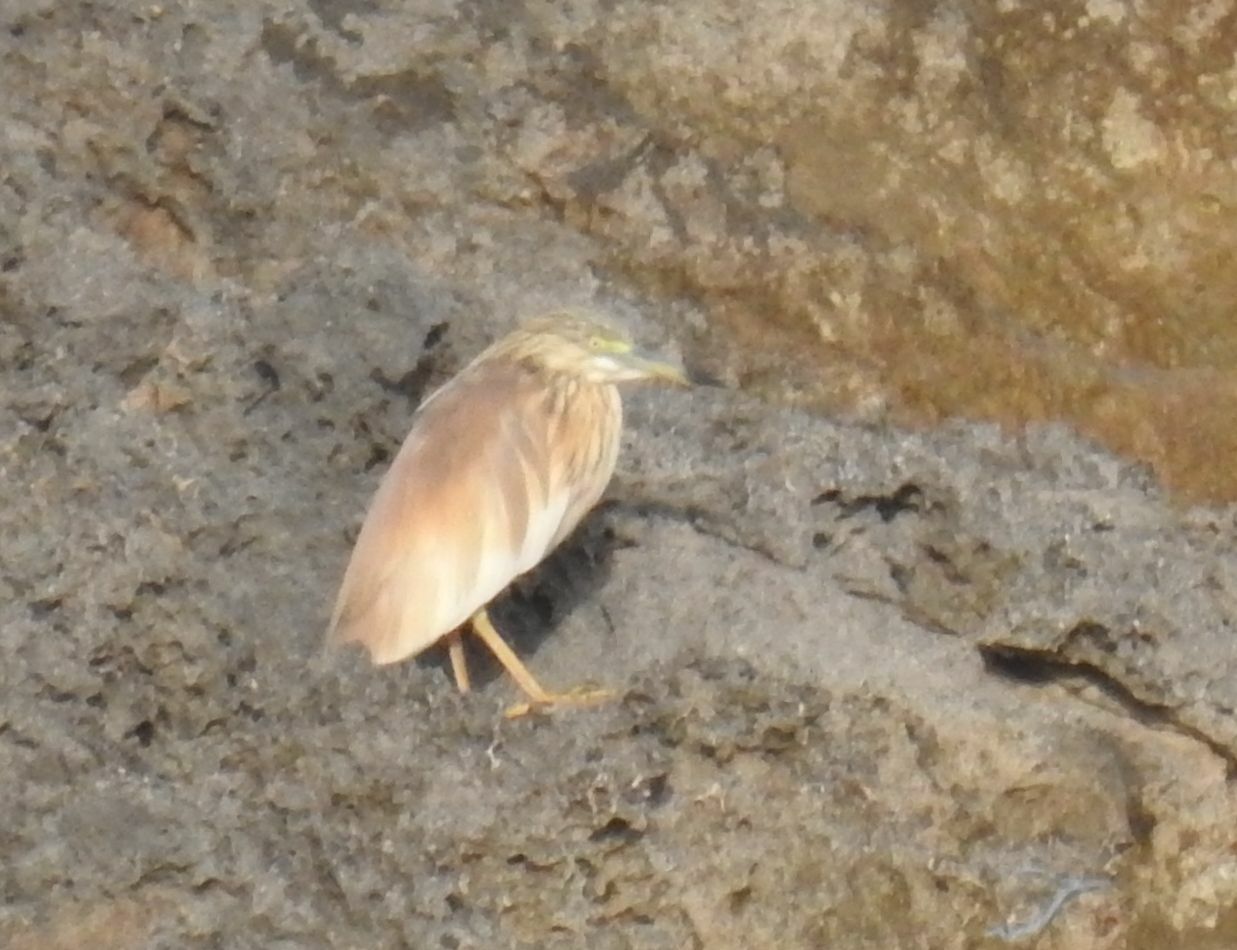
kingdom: Animalia
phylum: Chordata
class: Aves
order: Pelecaniformes
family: Ardeidae
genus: Ardeola
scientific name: Ardeola ralloides
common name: Squacco heron
